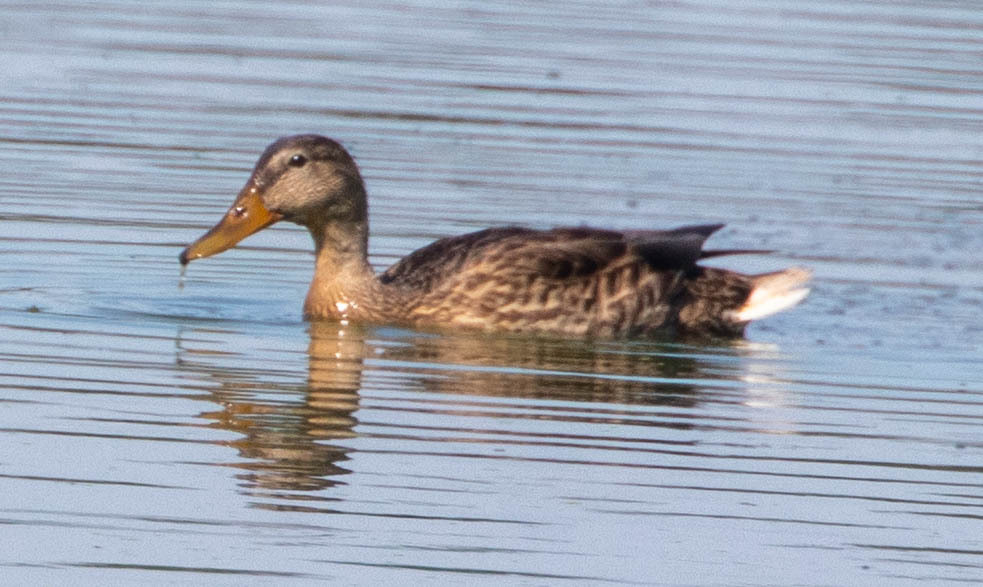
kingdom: Animalia
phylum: Chordata
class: Aves
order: Anseriformes
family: Anatidae
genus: Anas
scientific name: Anas platyrhynchos
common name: Mallard
